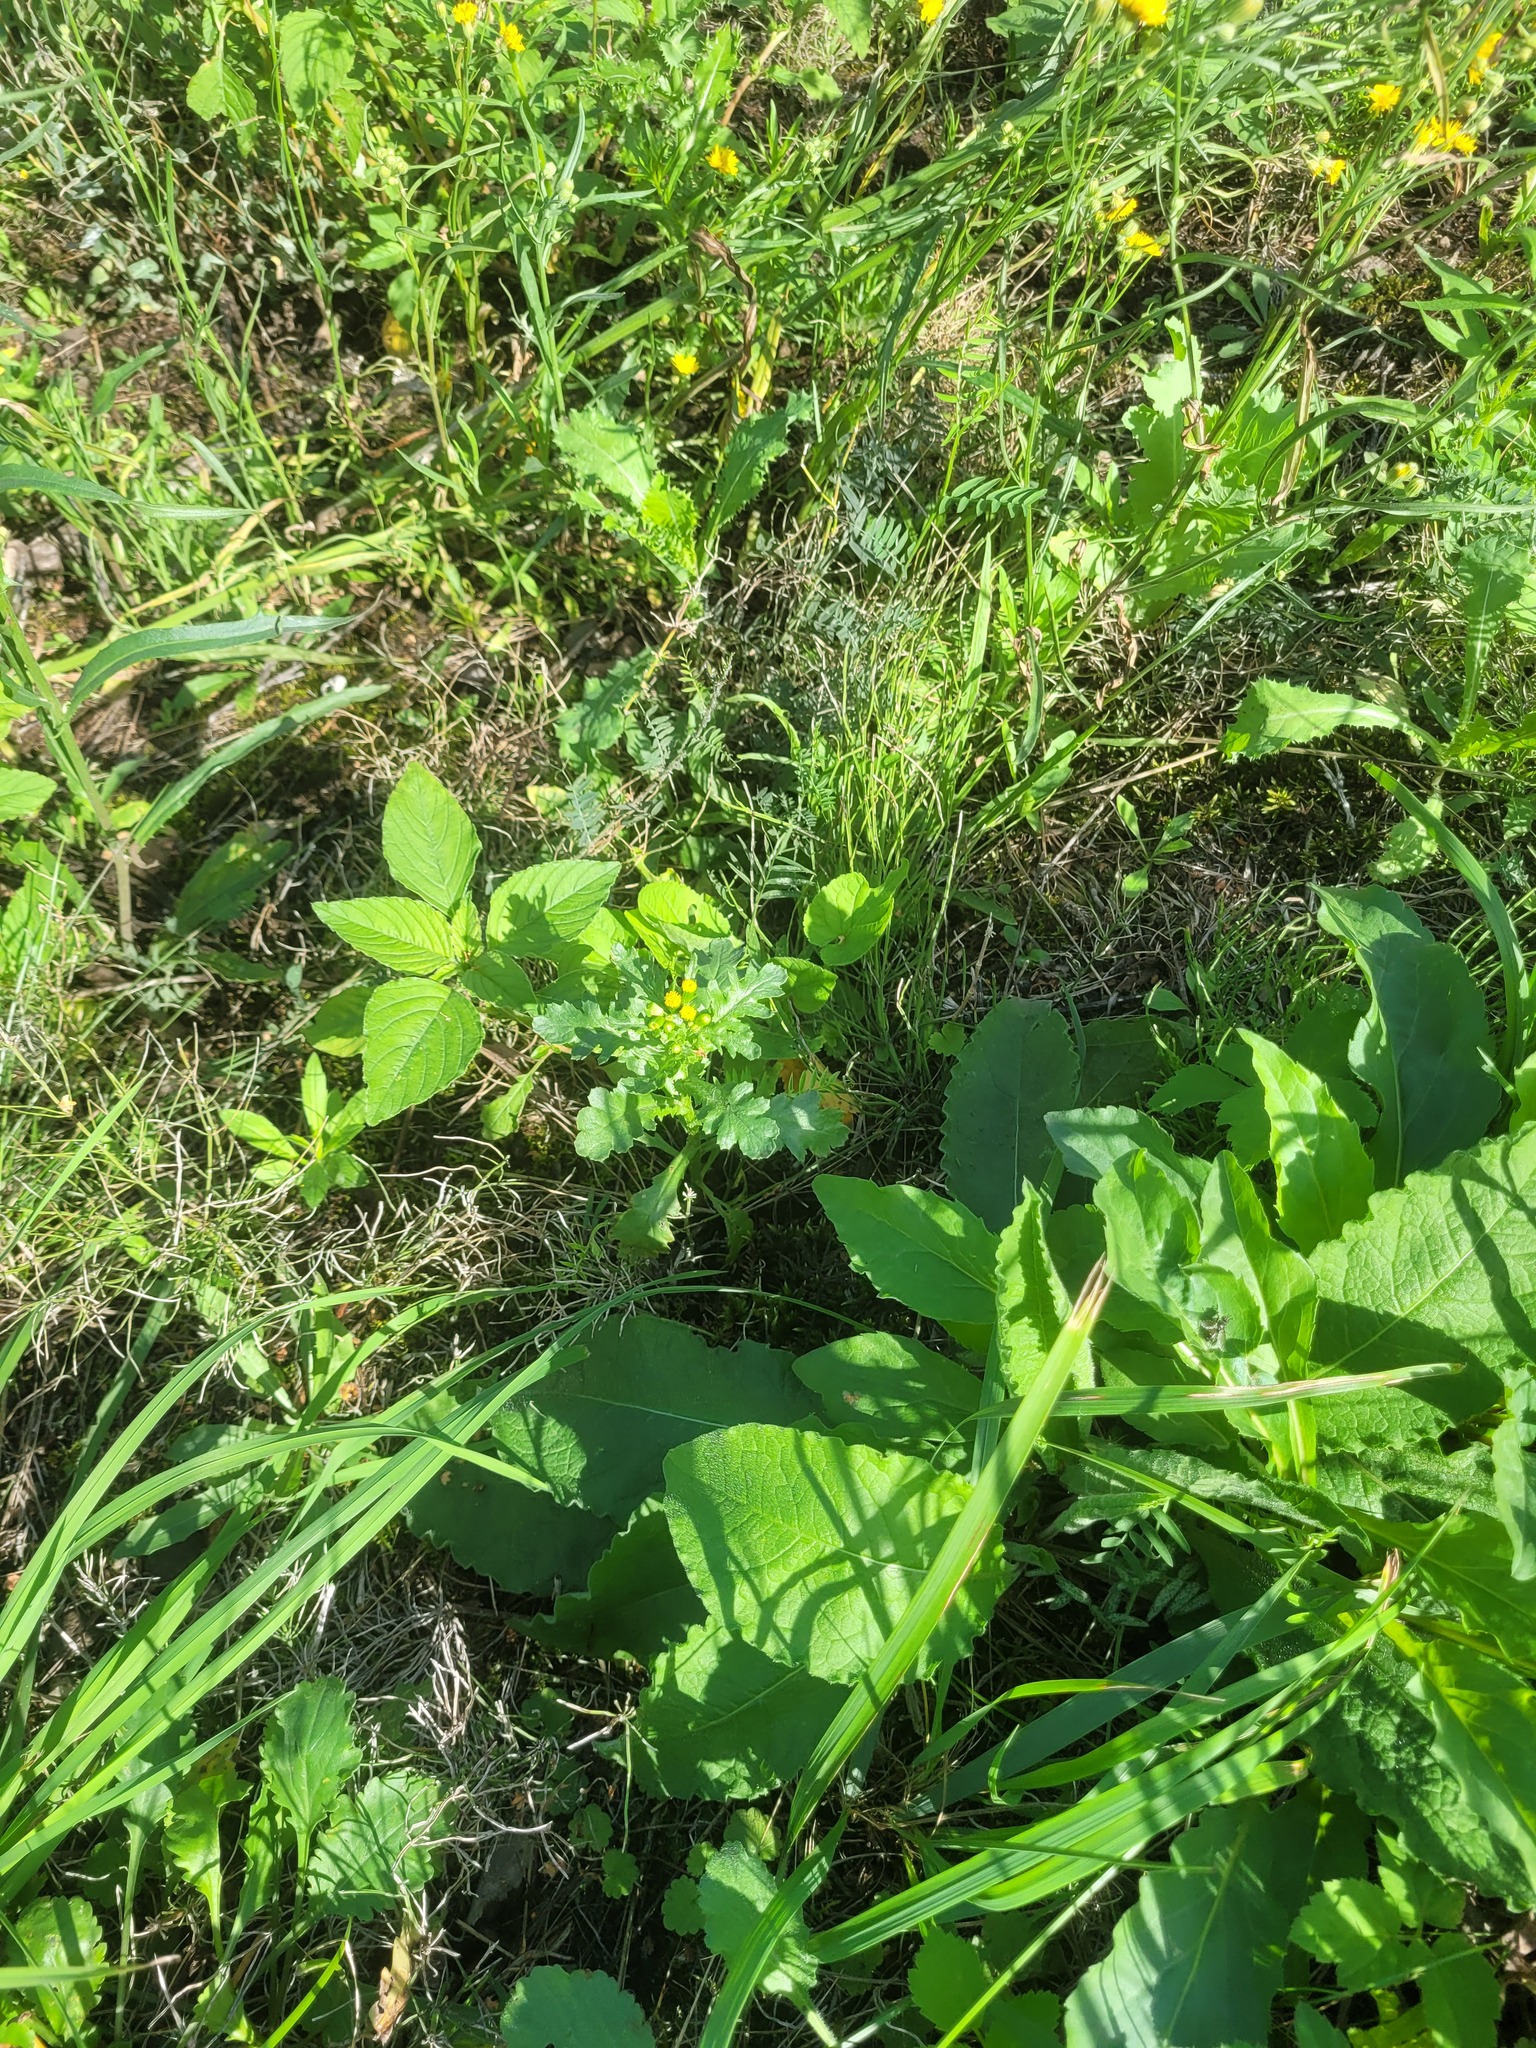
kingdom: Plantae
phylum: Tracheophyta
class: Magnoliopsida
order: Asterales
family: Asteraceae
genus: Senecio
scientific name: Senecio vulgaris
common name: Old-man-in-the-spring
